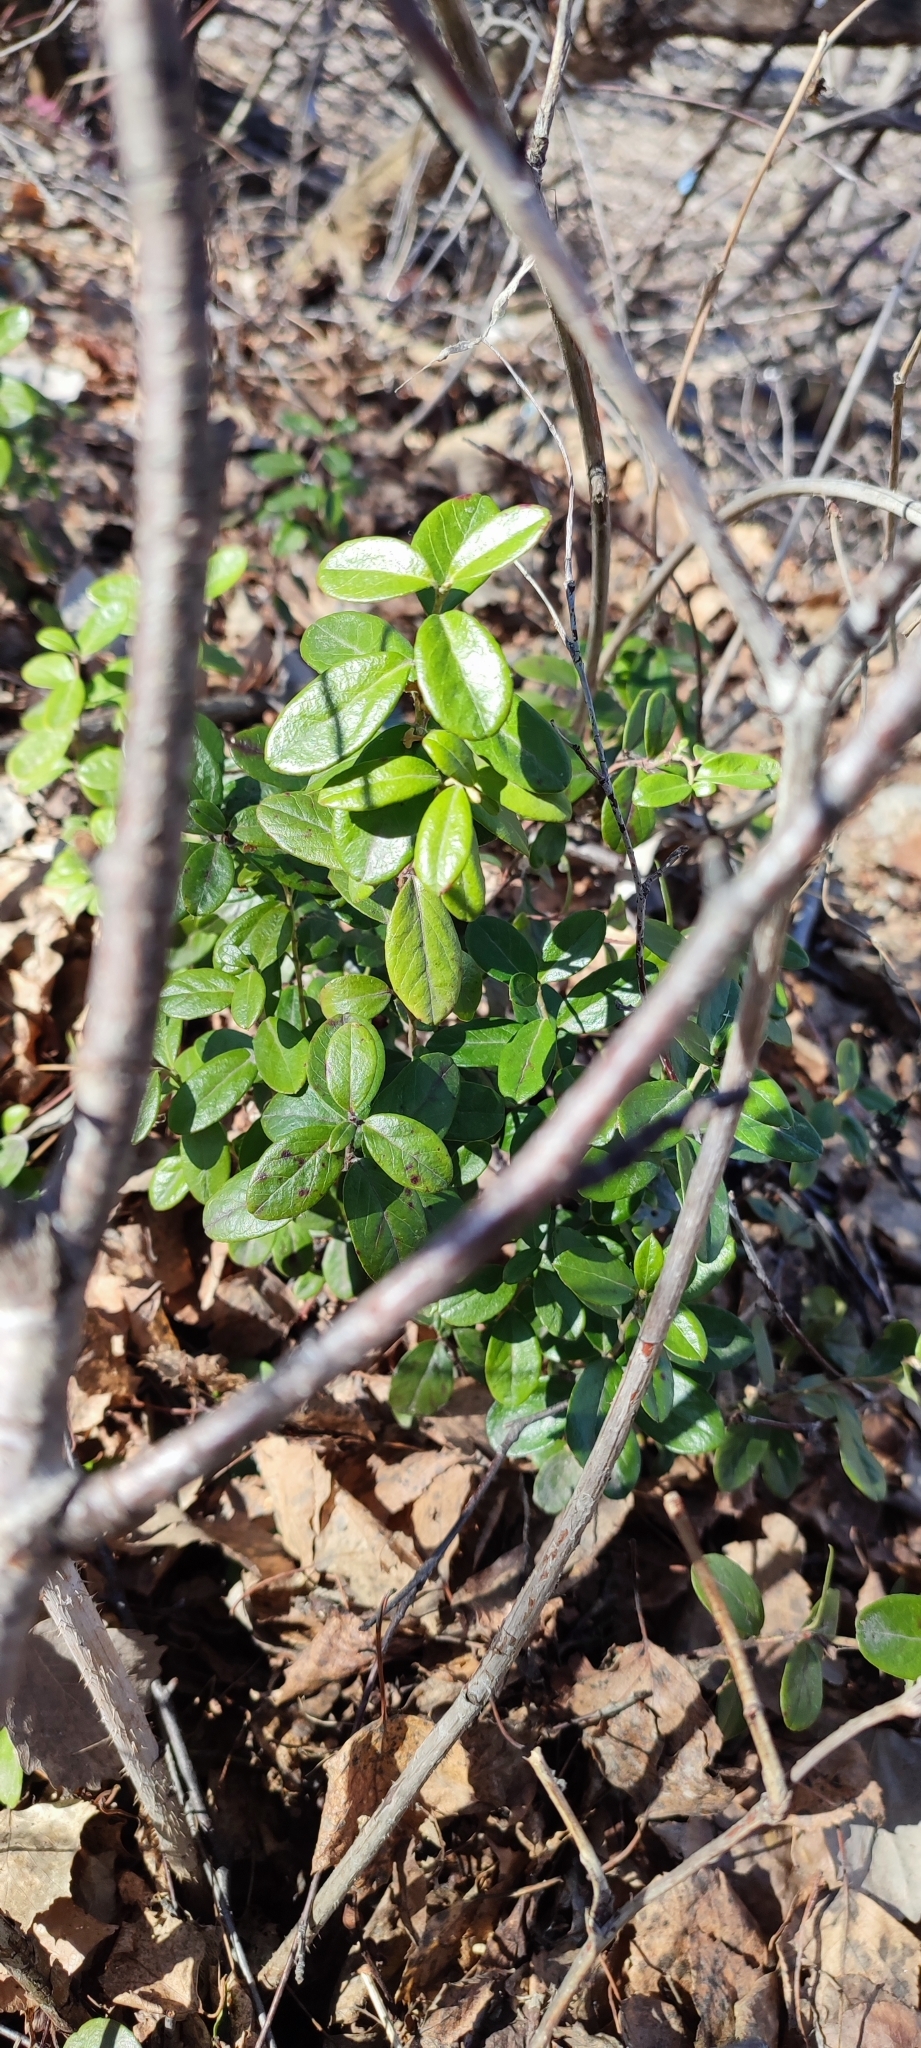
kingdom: Plantae
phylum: Tracheophyta
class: Magnoliopsida
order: Ericales
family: Ericaceae
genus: Vaccinium
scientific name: Vaccinium vitis-idaea
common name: Cowberry
